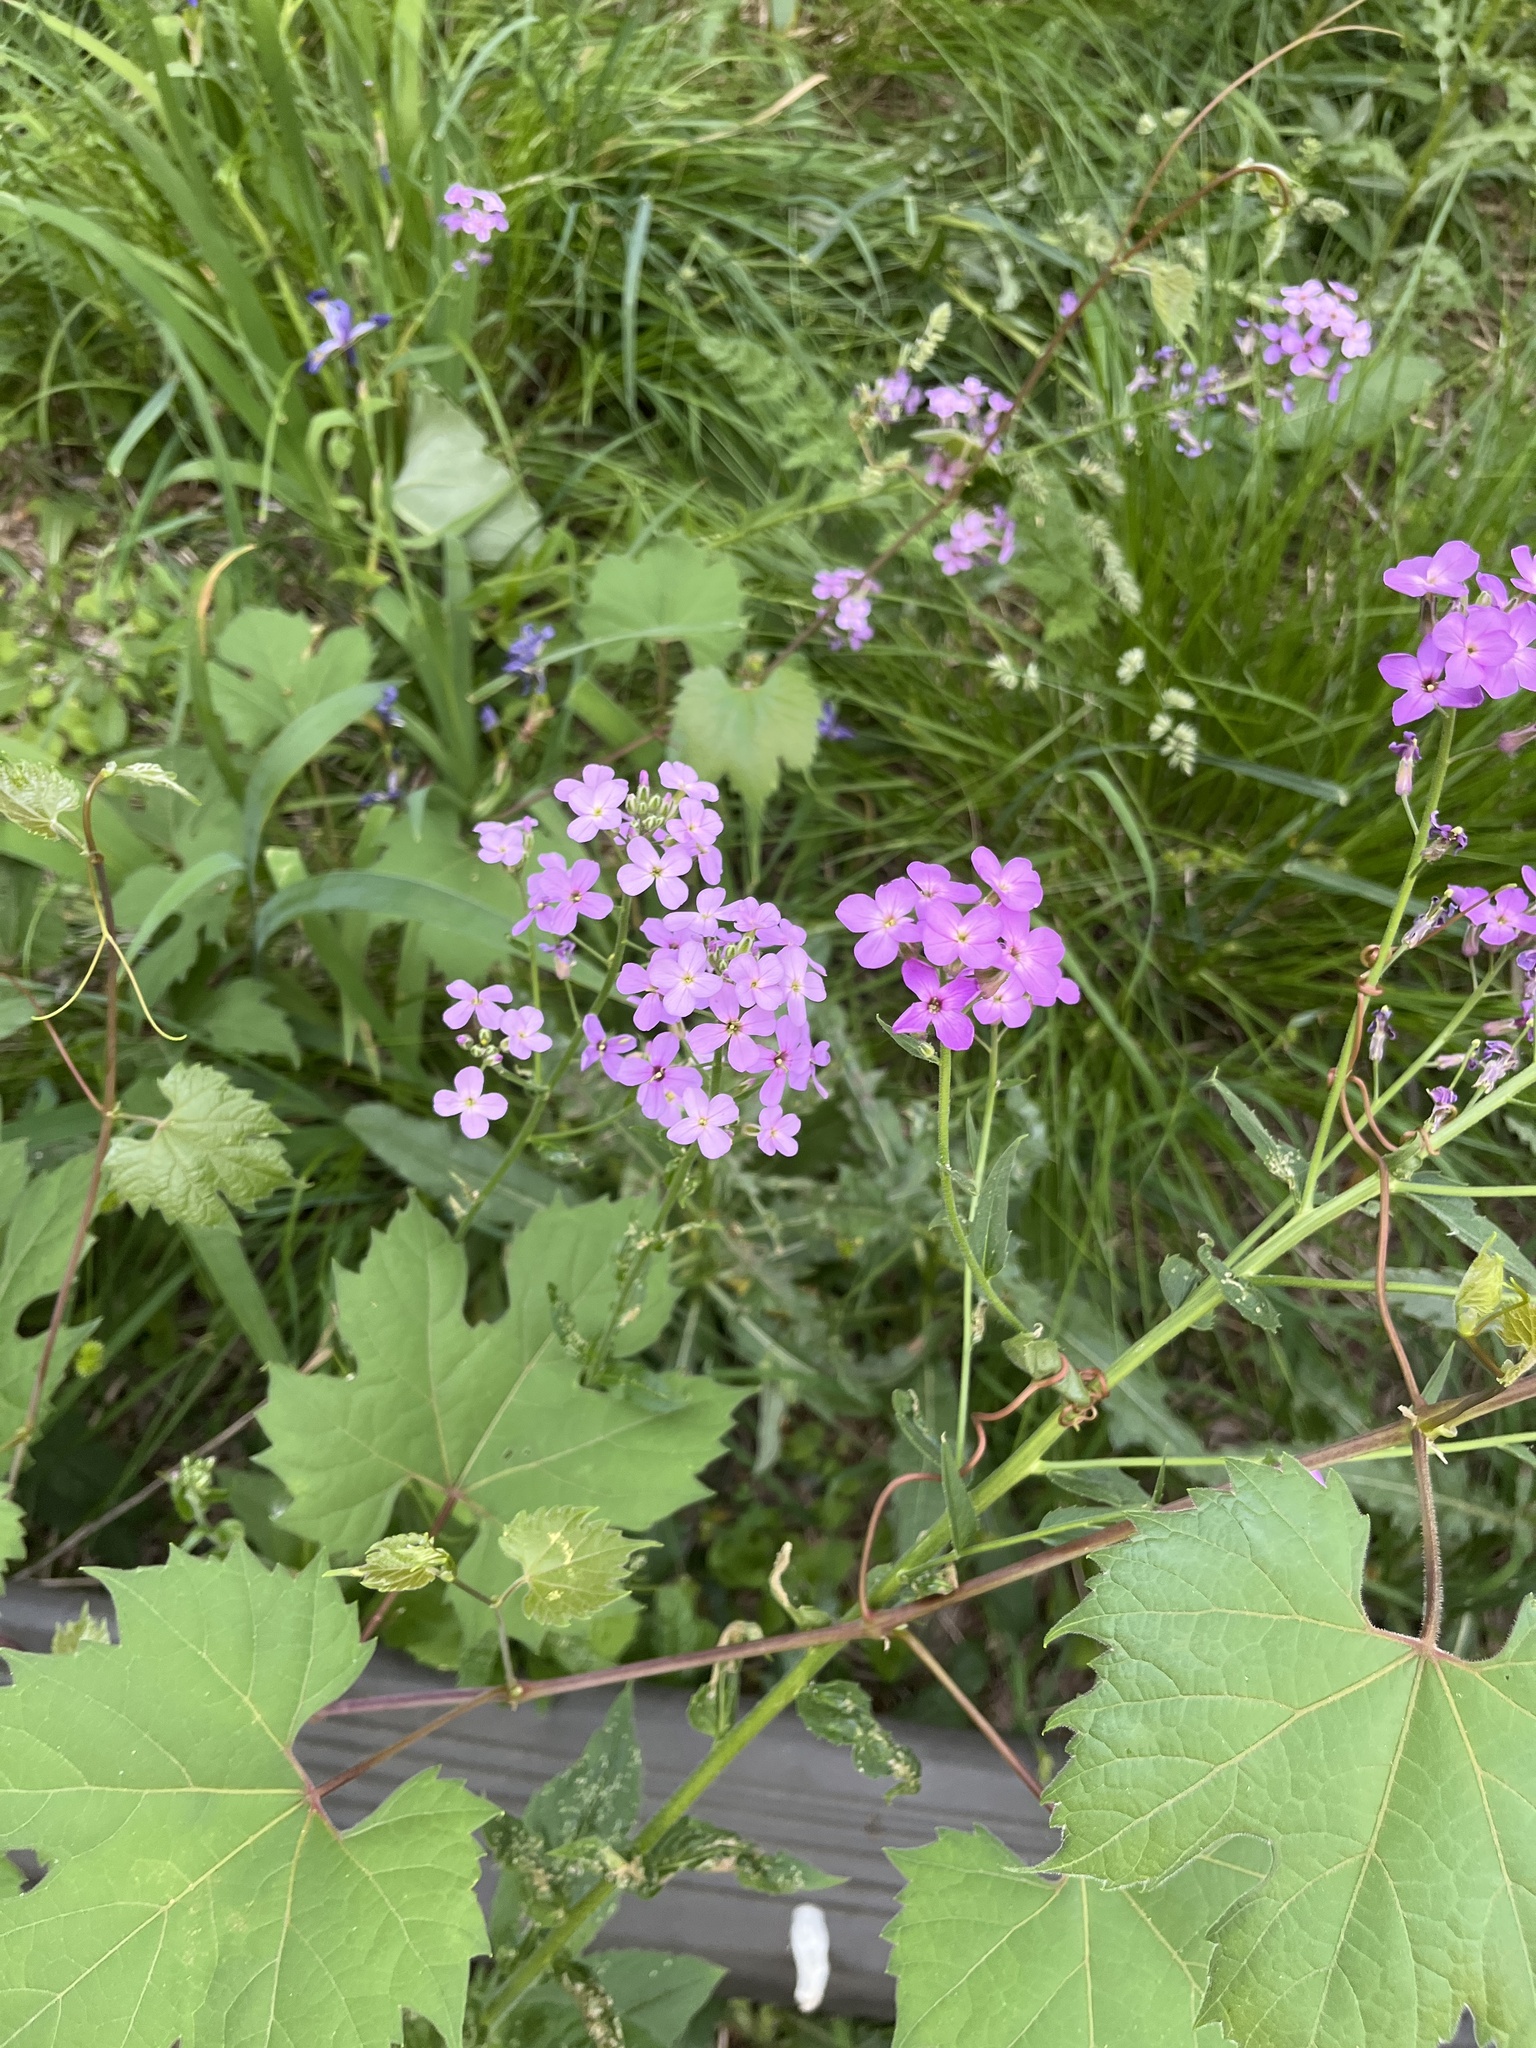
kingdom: Plantae
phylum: Tracheophyta
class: Magnoliopsida
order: Brassicales
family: Brassicaceae
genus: Hesperis
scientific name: Hesperis matronalis
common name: Dame's-violet
